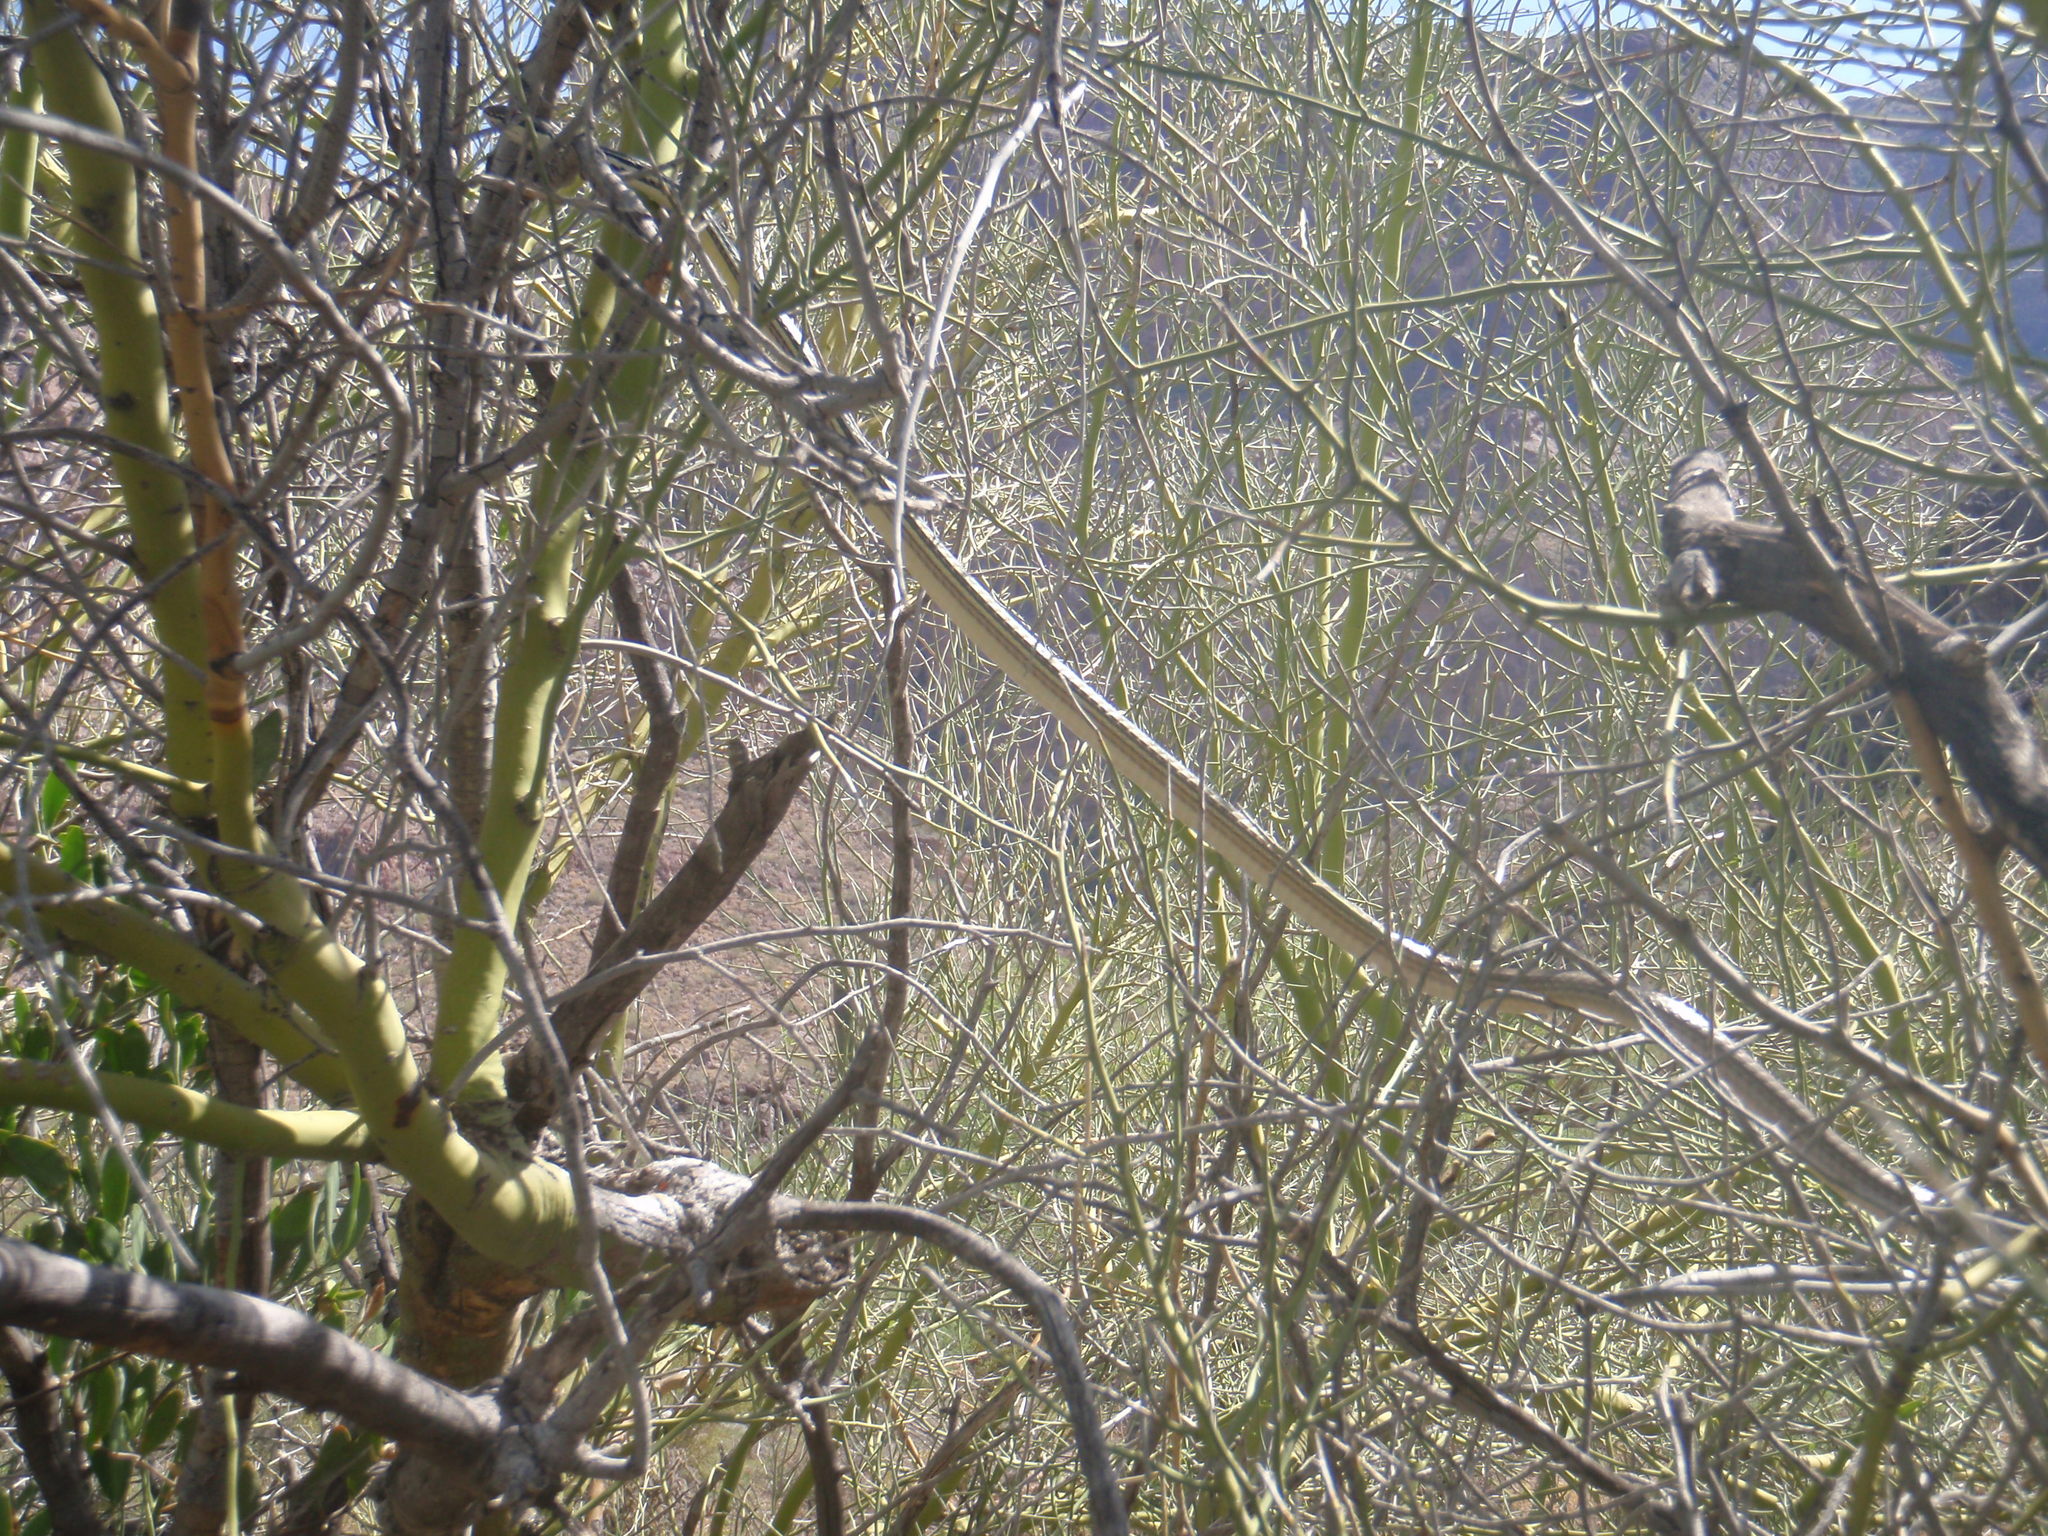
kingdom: Animalia
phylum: Chordata
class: Squamata
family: Colubridae
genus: Masticophis
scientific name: Masticophis bilineatus
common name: Sonoran whipsnake
